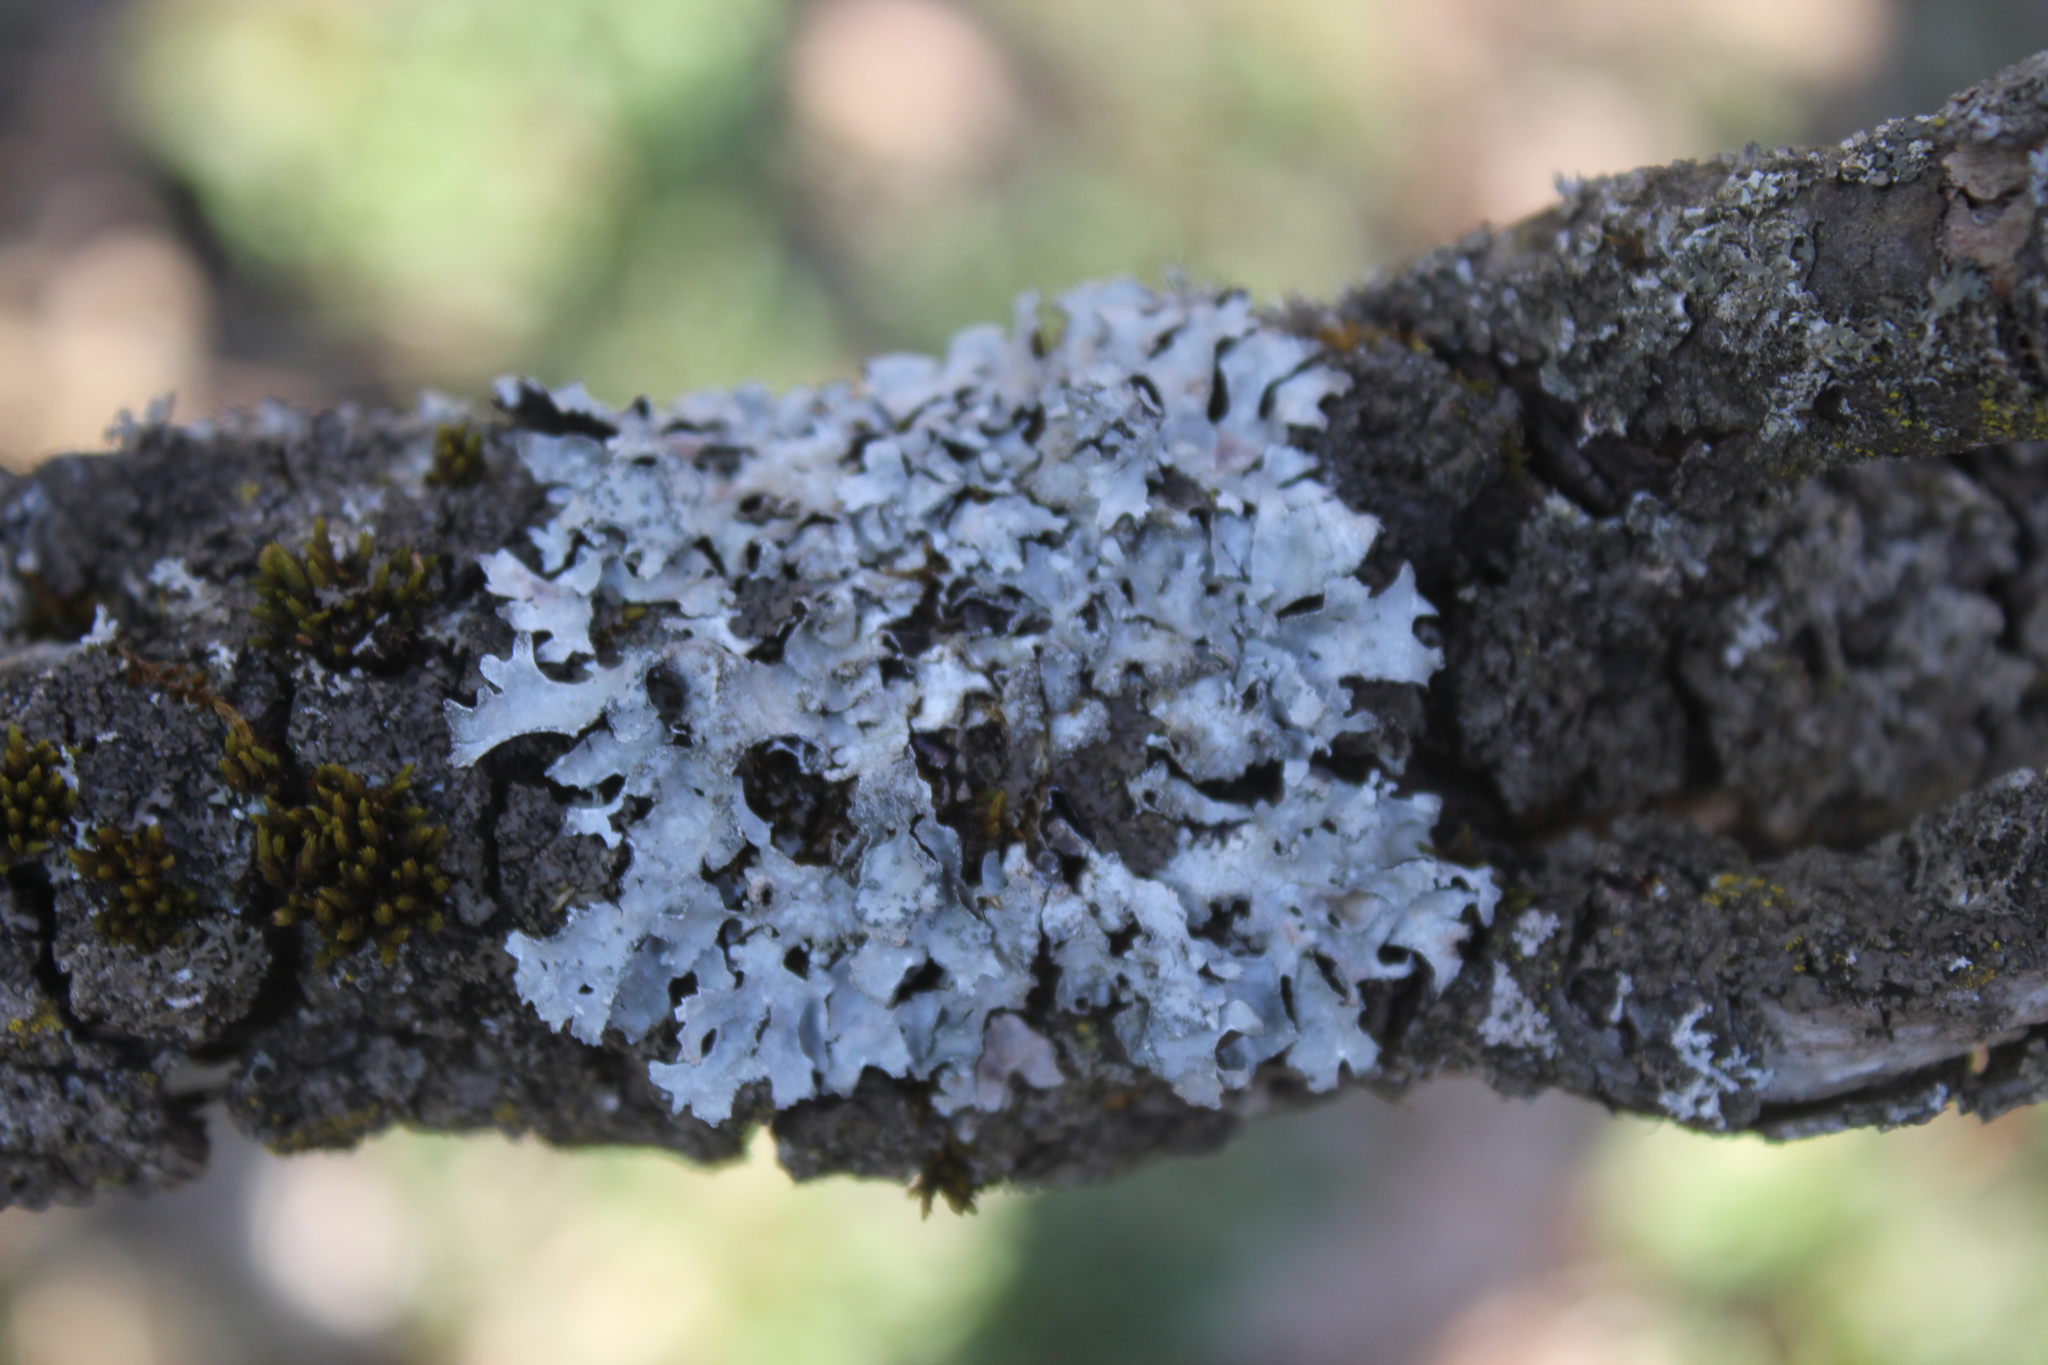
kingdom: Fungi
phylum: Ascomycota
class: Lecanoromycetes
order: Lecanorales
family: Parmeliaceae
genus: Parmelia
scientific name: Parmelia sulcata
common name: Netted shield lichen
